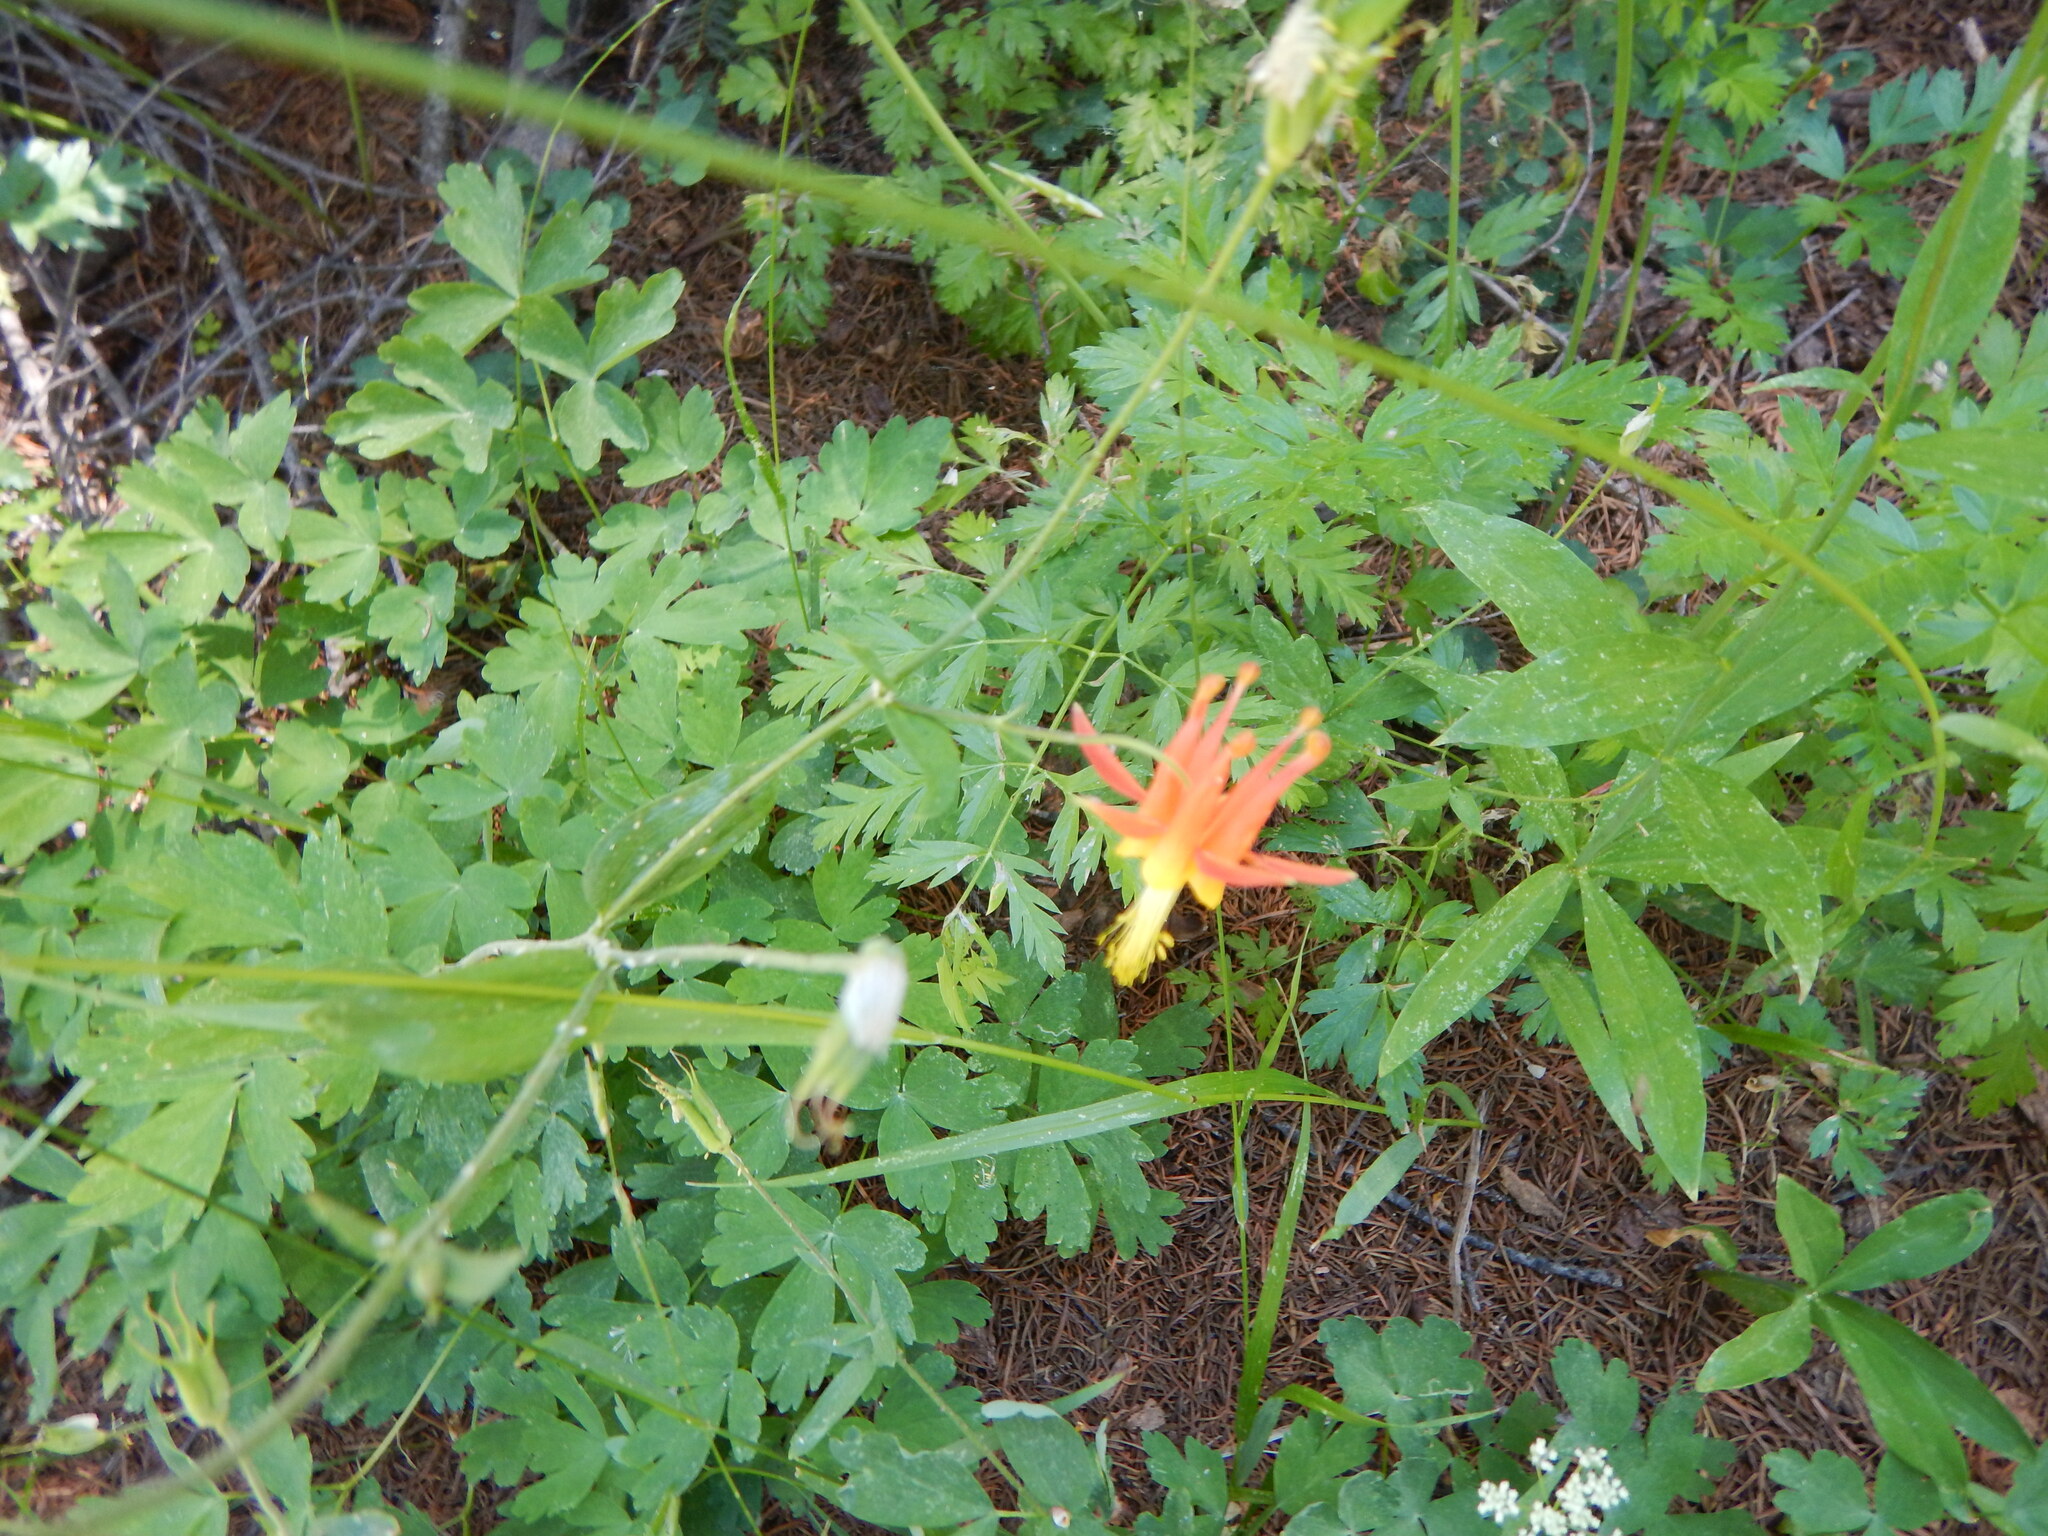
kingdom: Plantae
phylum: Tracheophyta
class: Magnoliopsida
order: Ranunculales
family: Ranunculaceae
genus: Aquilegia
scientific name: Aquilegia formosa
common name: Sitka columbine
